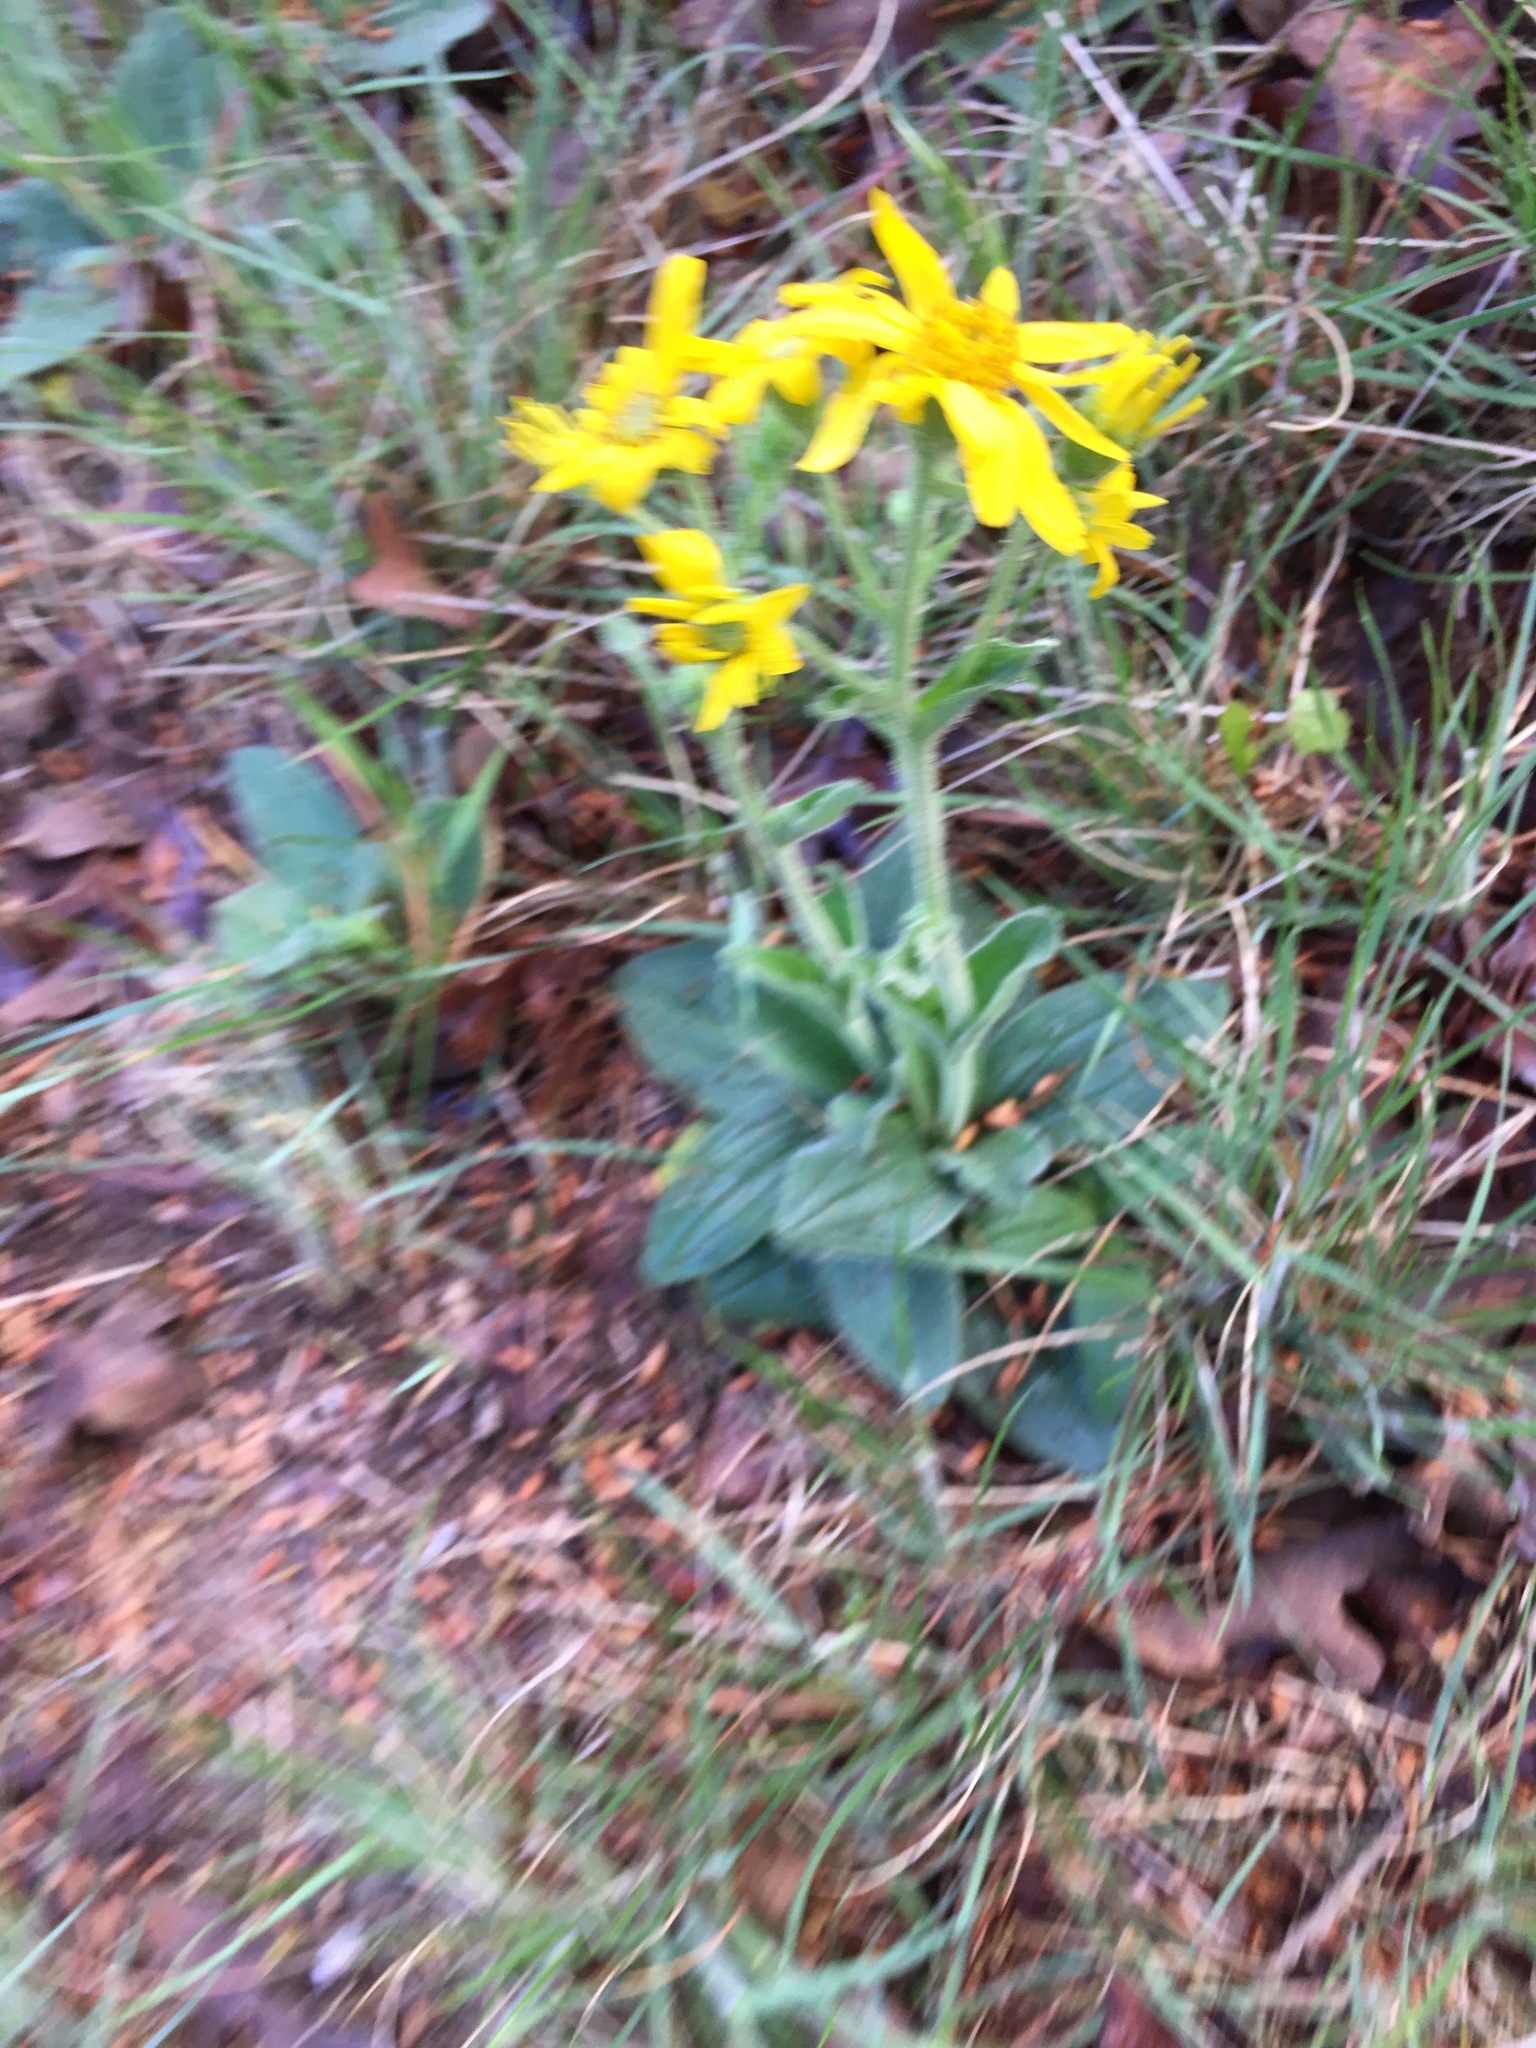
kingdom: Plantae
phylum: Tracheophyta
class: Magnoliopsida
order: Asterales
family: Asteraceae
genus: Arnica
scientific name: Arnica acaulis
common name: Common leopardbane
